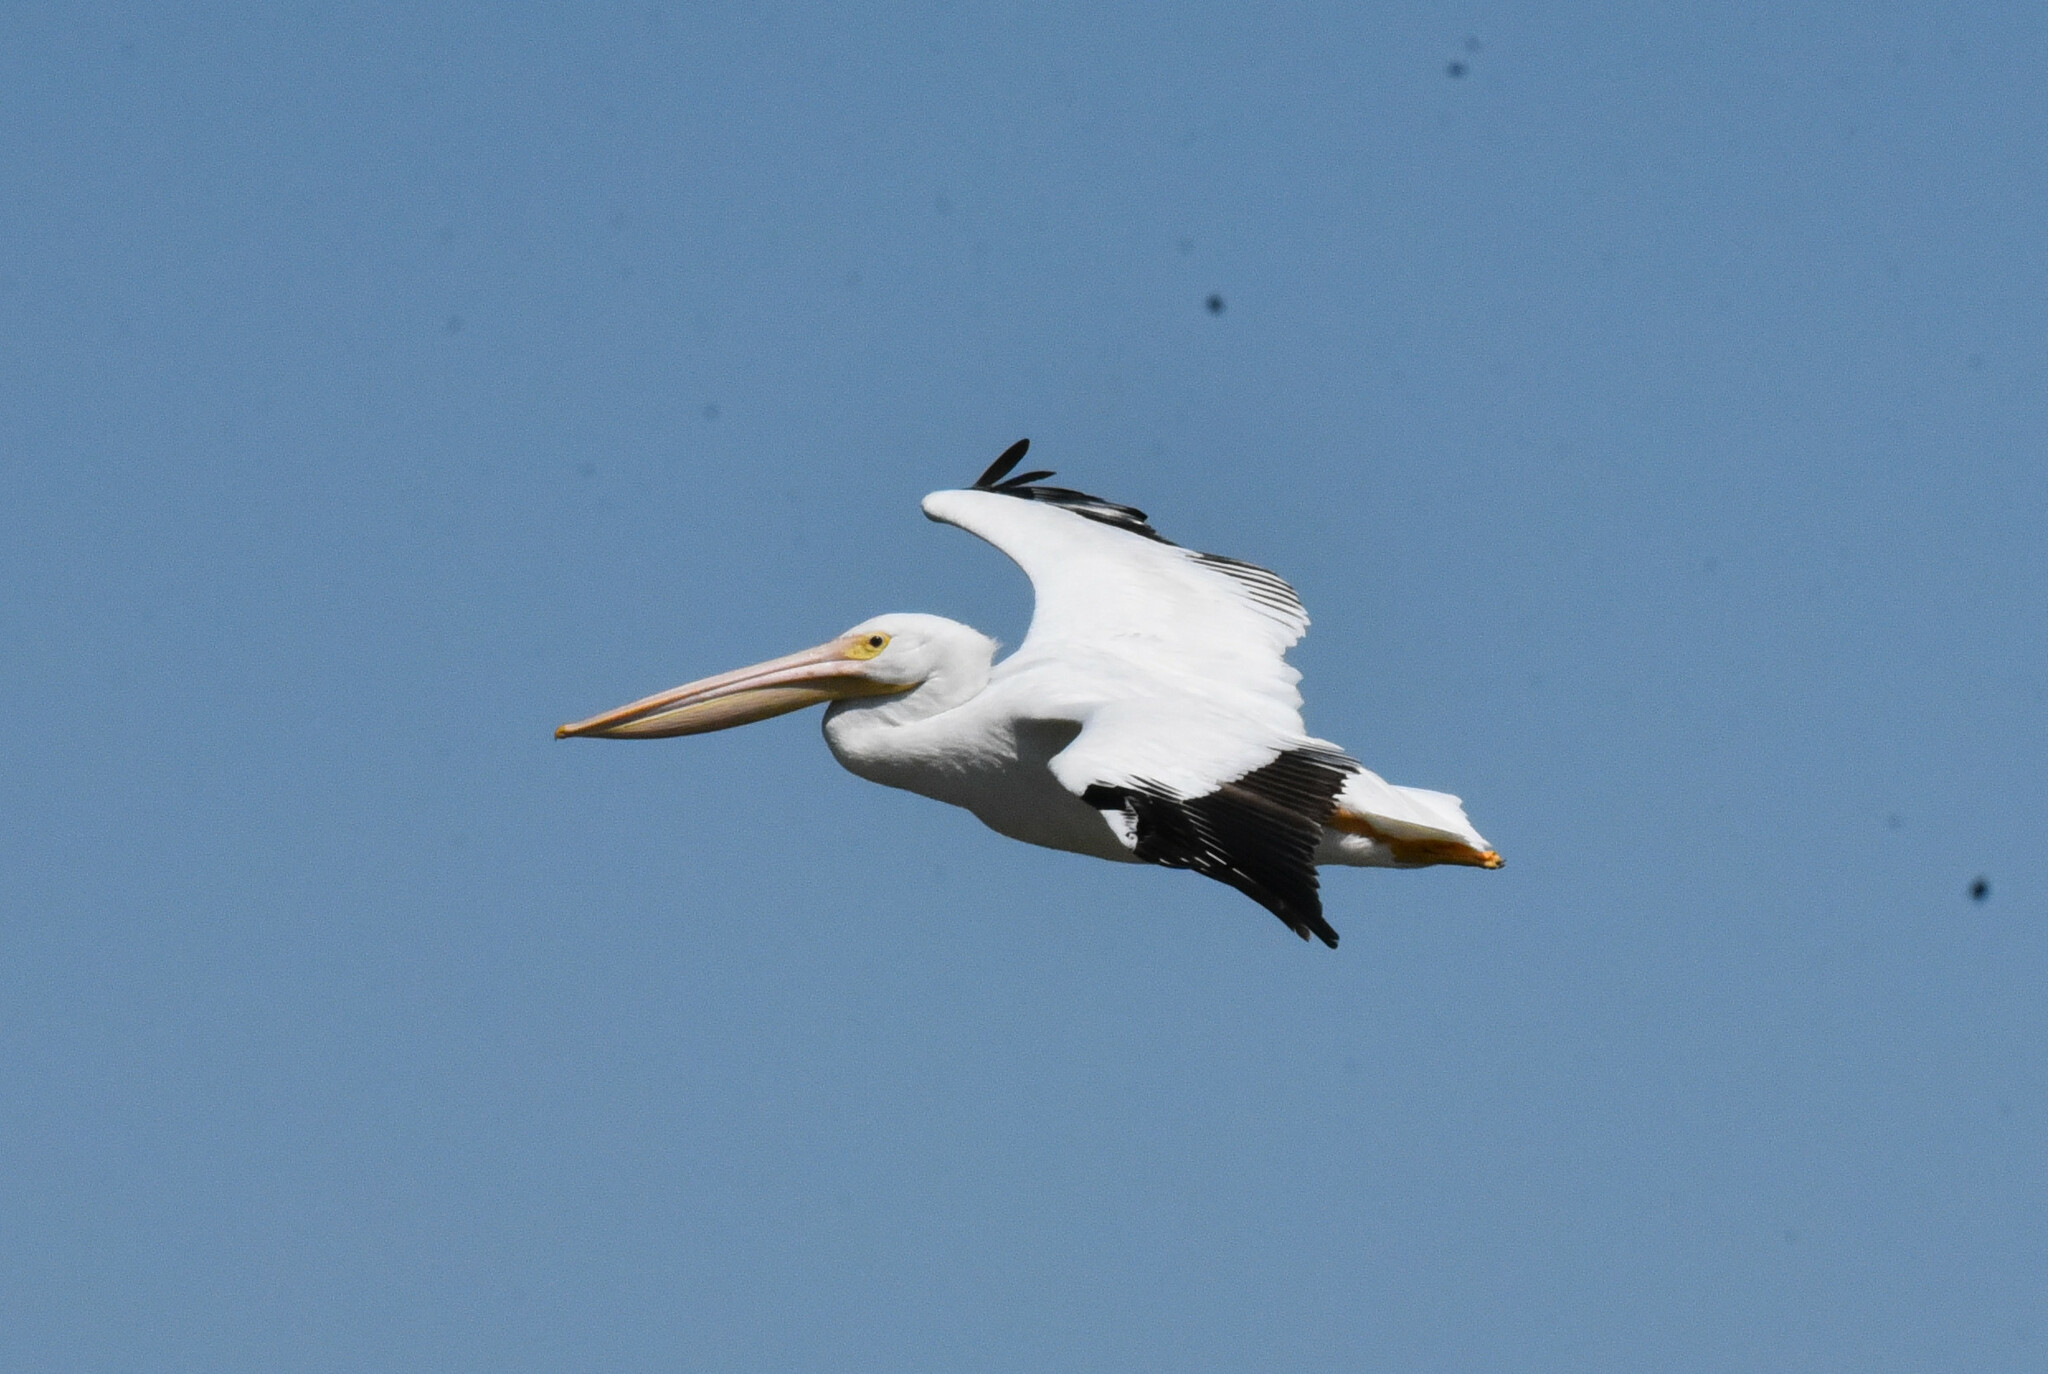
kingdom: Animalia
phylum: Chordata
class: Aves
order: Pelecaniformes
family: Pelecanidae
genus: Pelecanus
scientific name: Pelecanus erythrorhynchos
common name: American white pelican
